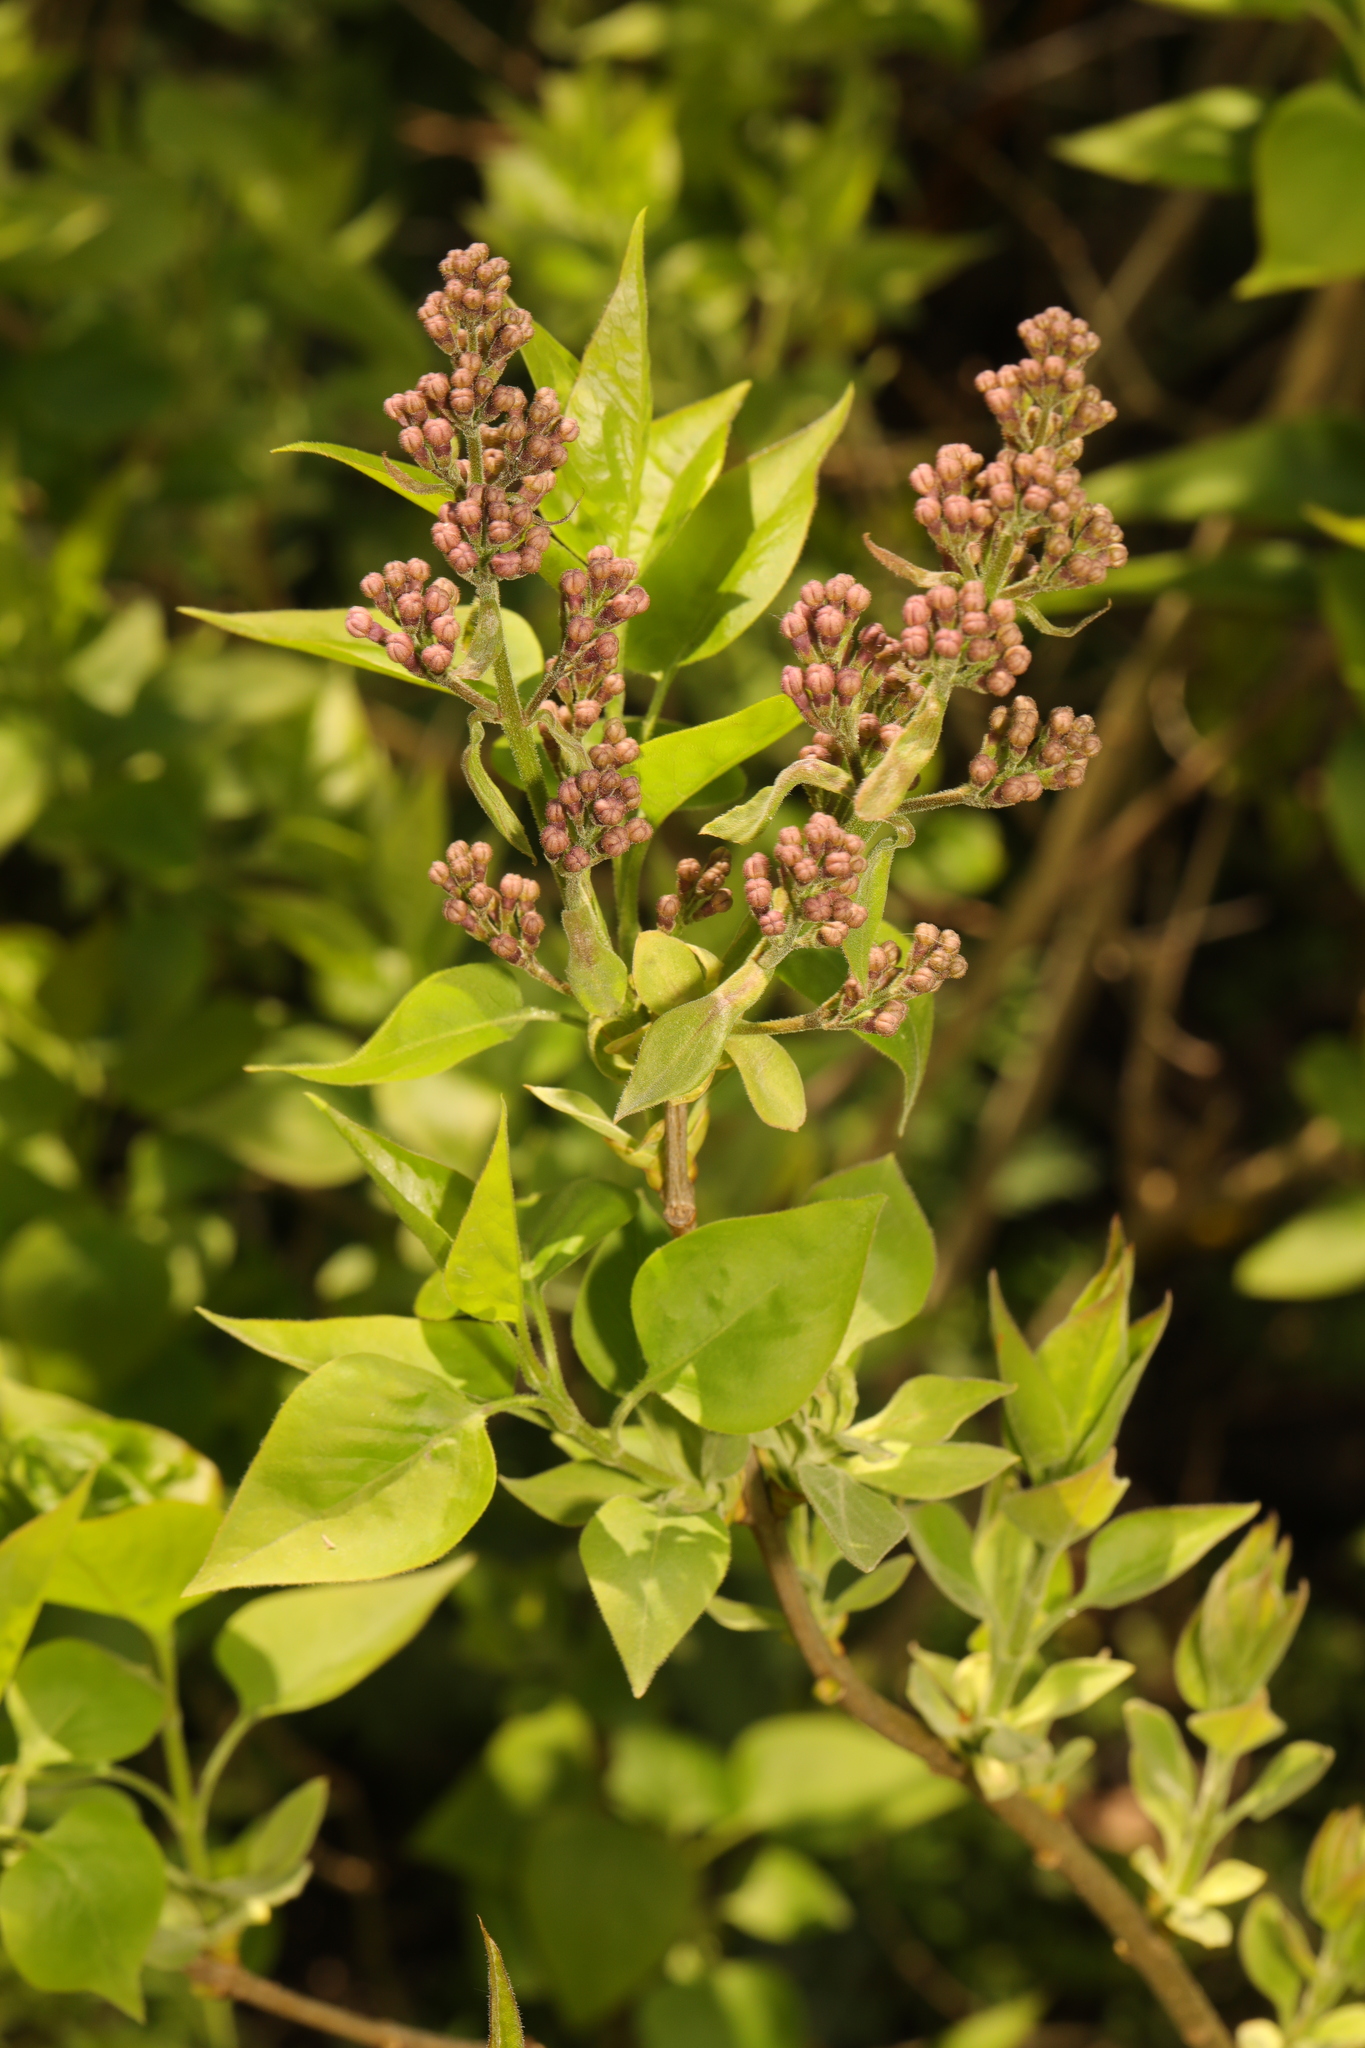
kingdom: Plantae
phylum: Tracheophyta
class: Magnoliopsida
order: Lamiales
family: Oleaceae
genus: Syringa
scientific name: Syringa vulgaris
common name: Common lilac
